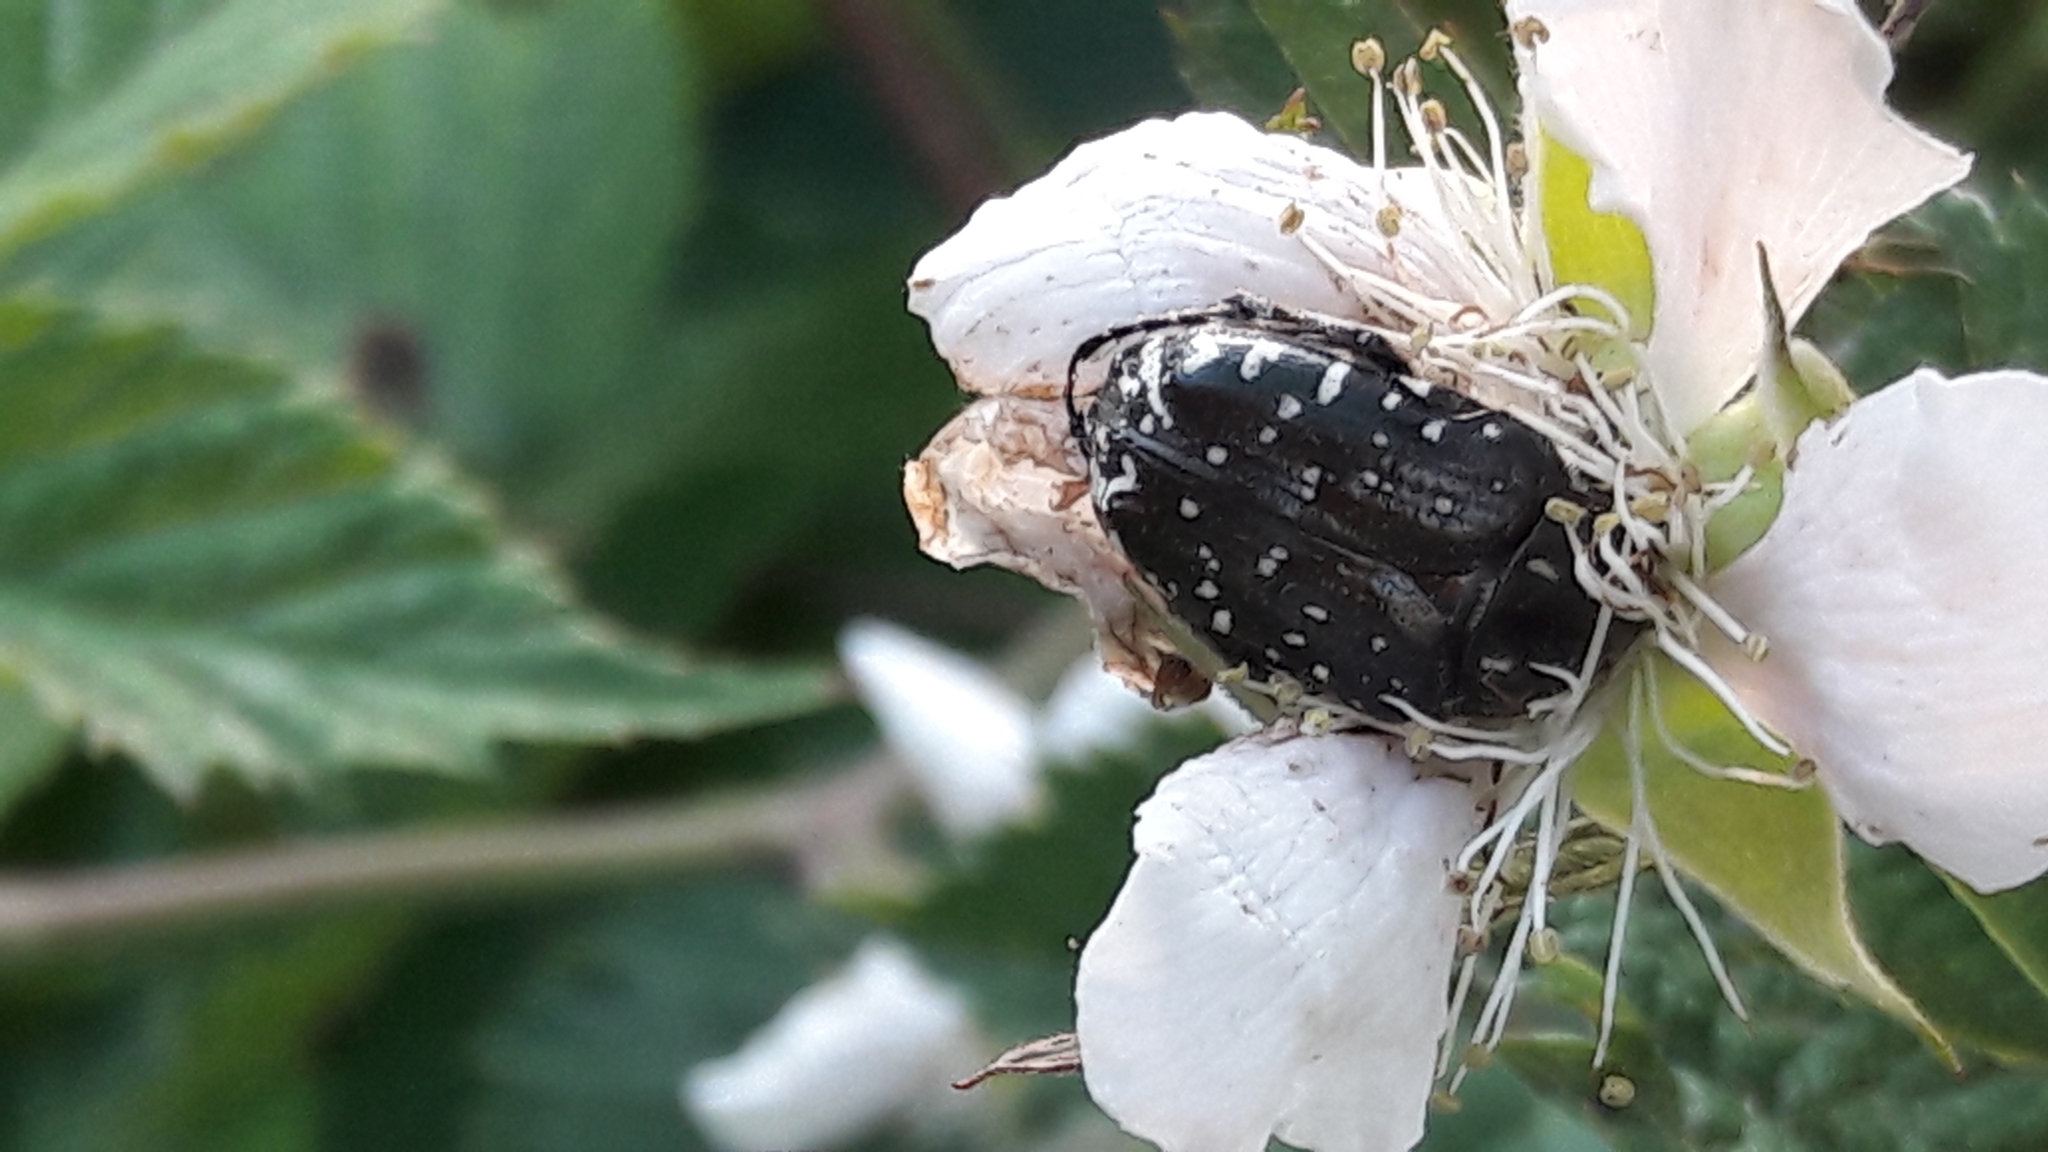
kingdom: Animalia
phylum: Arthropoda
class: Insecta
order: Coleoptera
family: Scarabaeidae
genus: Oxythyrea
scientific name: Oxythyrea funesta
